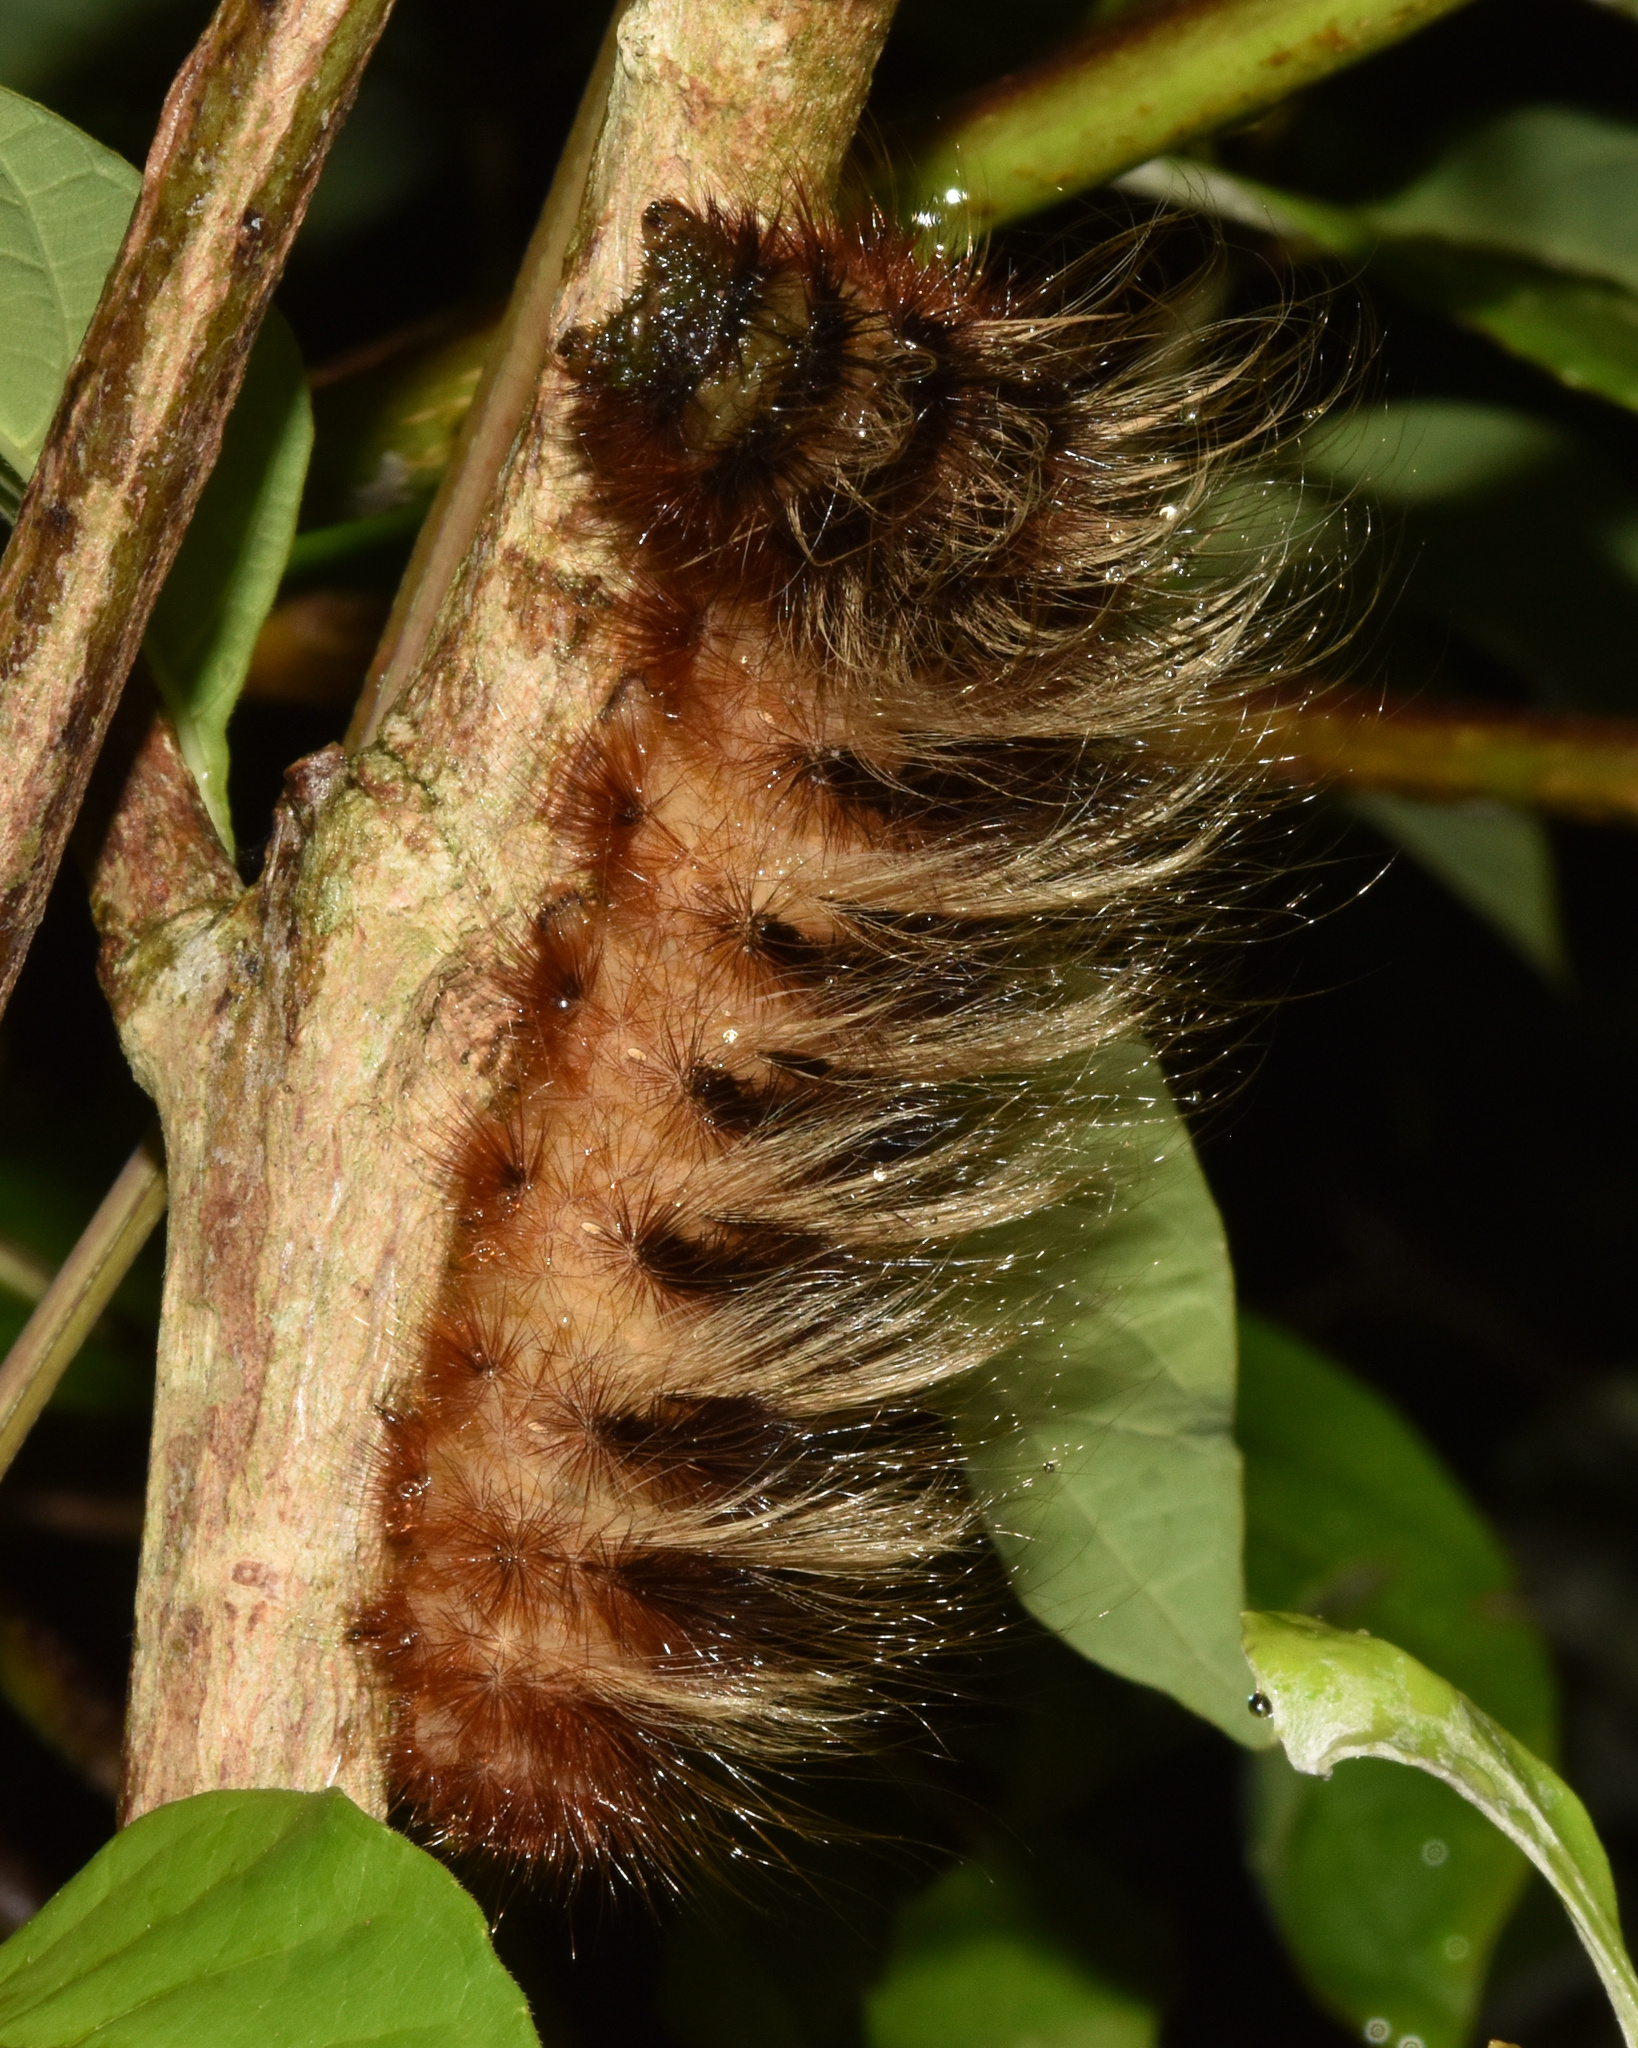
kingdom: Animalia
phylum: Arthropoda
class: Insecta
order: Lepidoptera
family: Eupterotidae
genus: Striphnopteryx
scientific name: Striphnopteryx edulis
